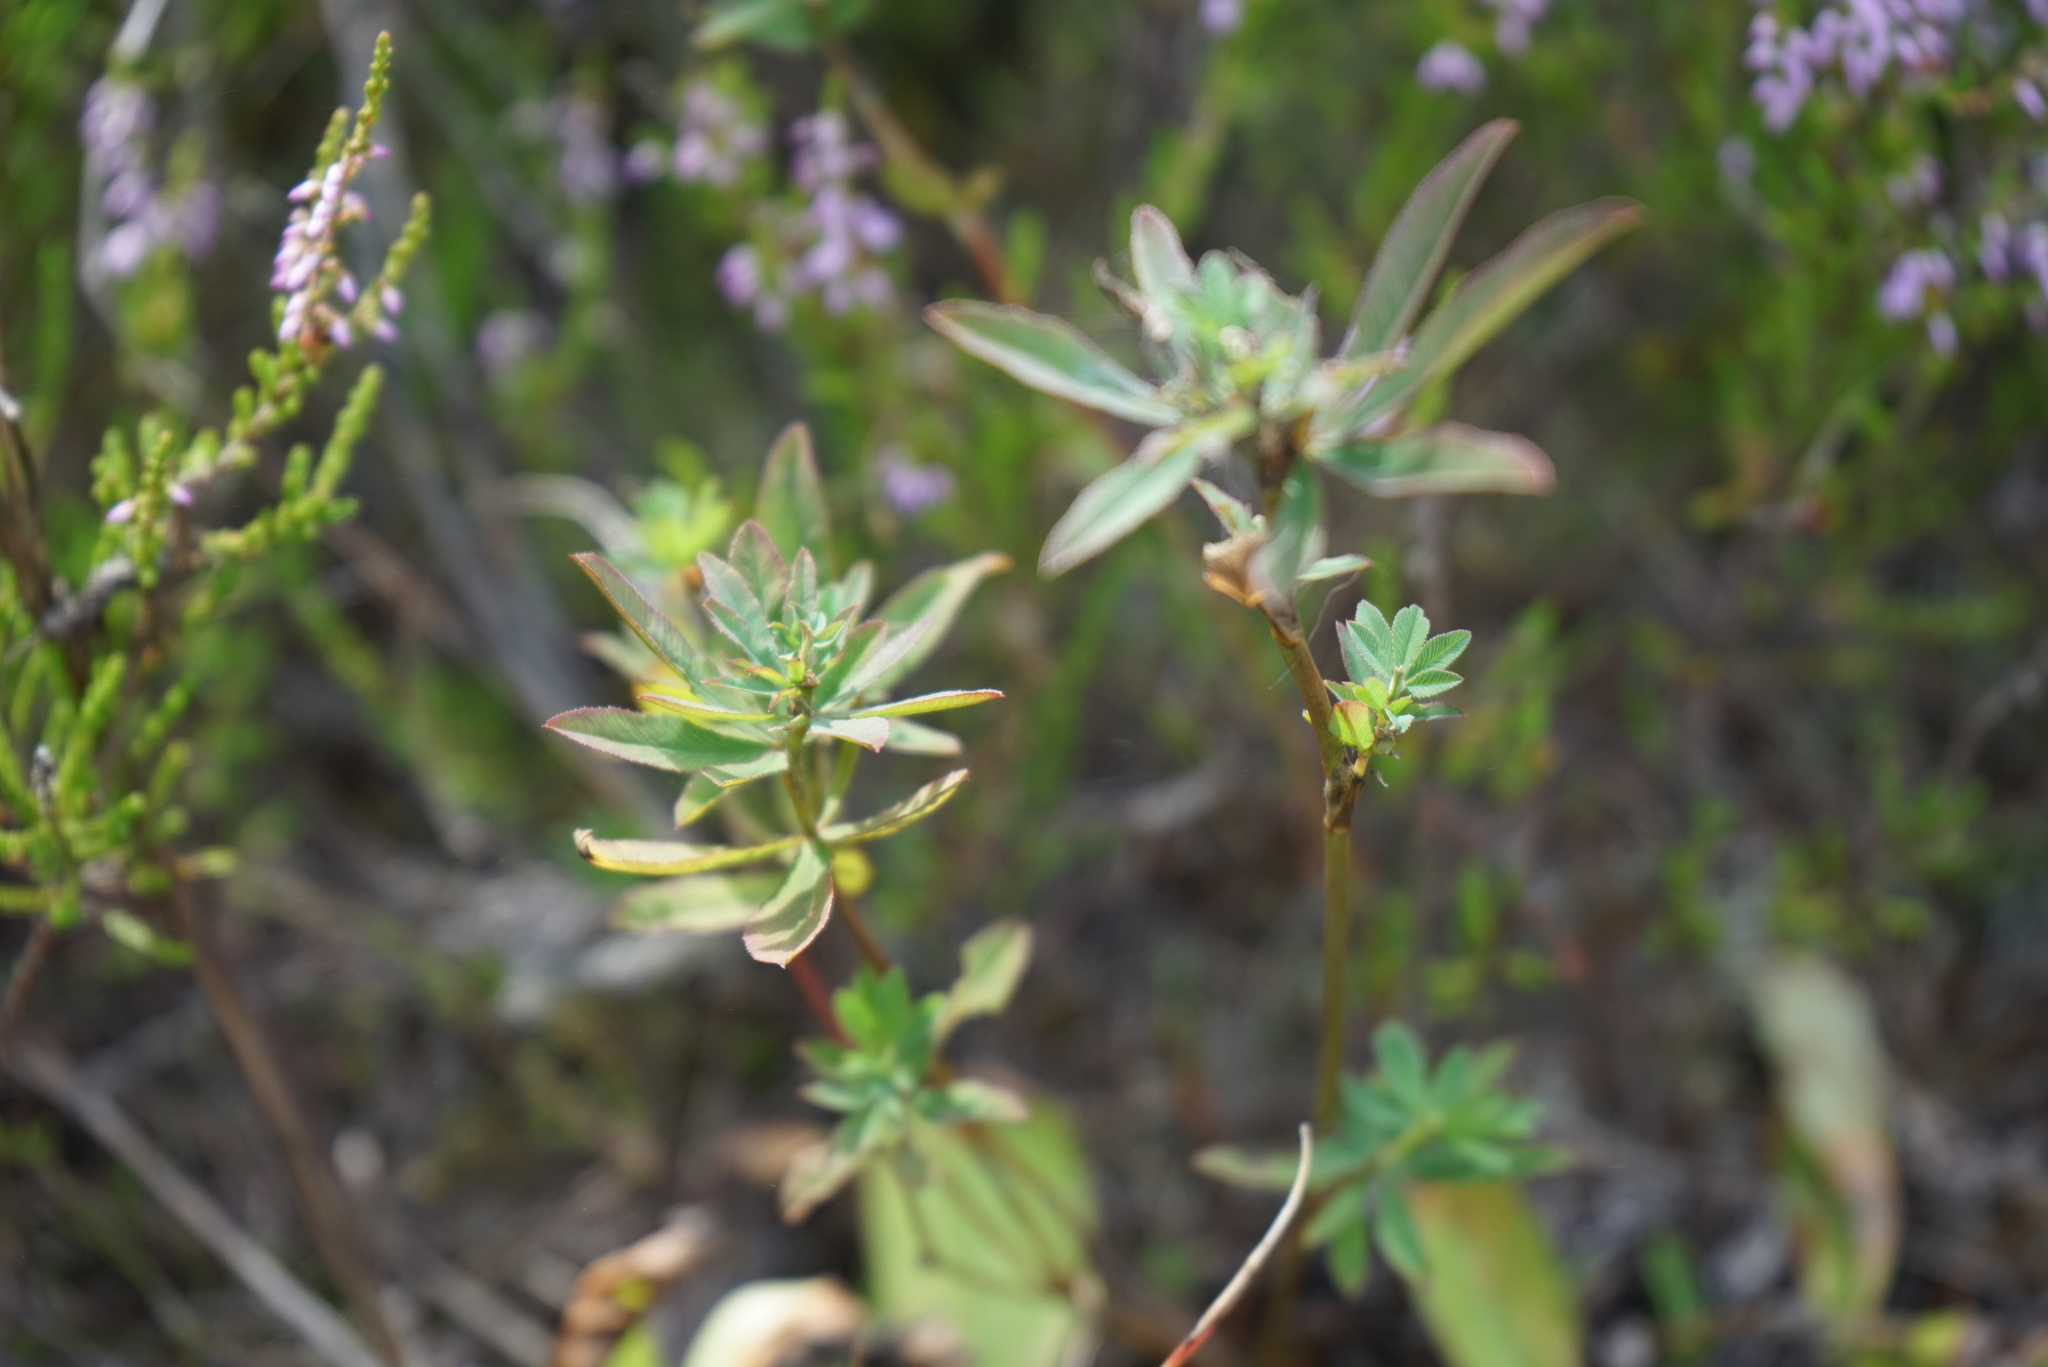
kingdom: Plantae
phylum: Tracheophyta
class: Magnoliopsida
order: Fabales
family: Fabaceae
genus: Trifolium
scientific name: Trifolium lupinaster
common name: Lupine clover
